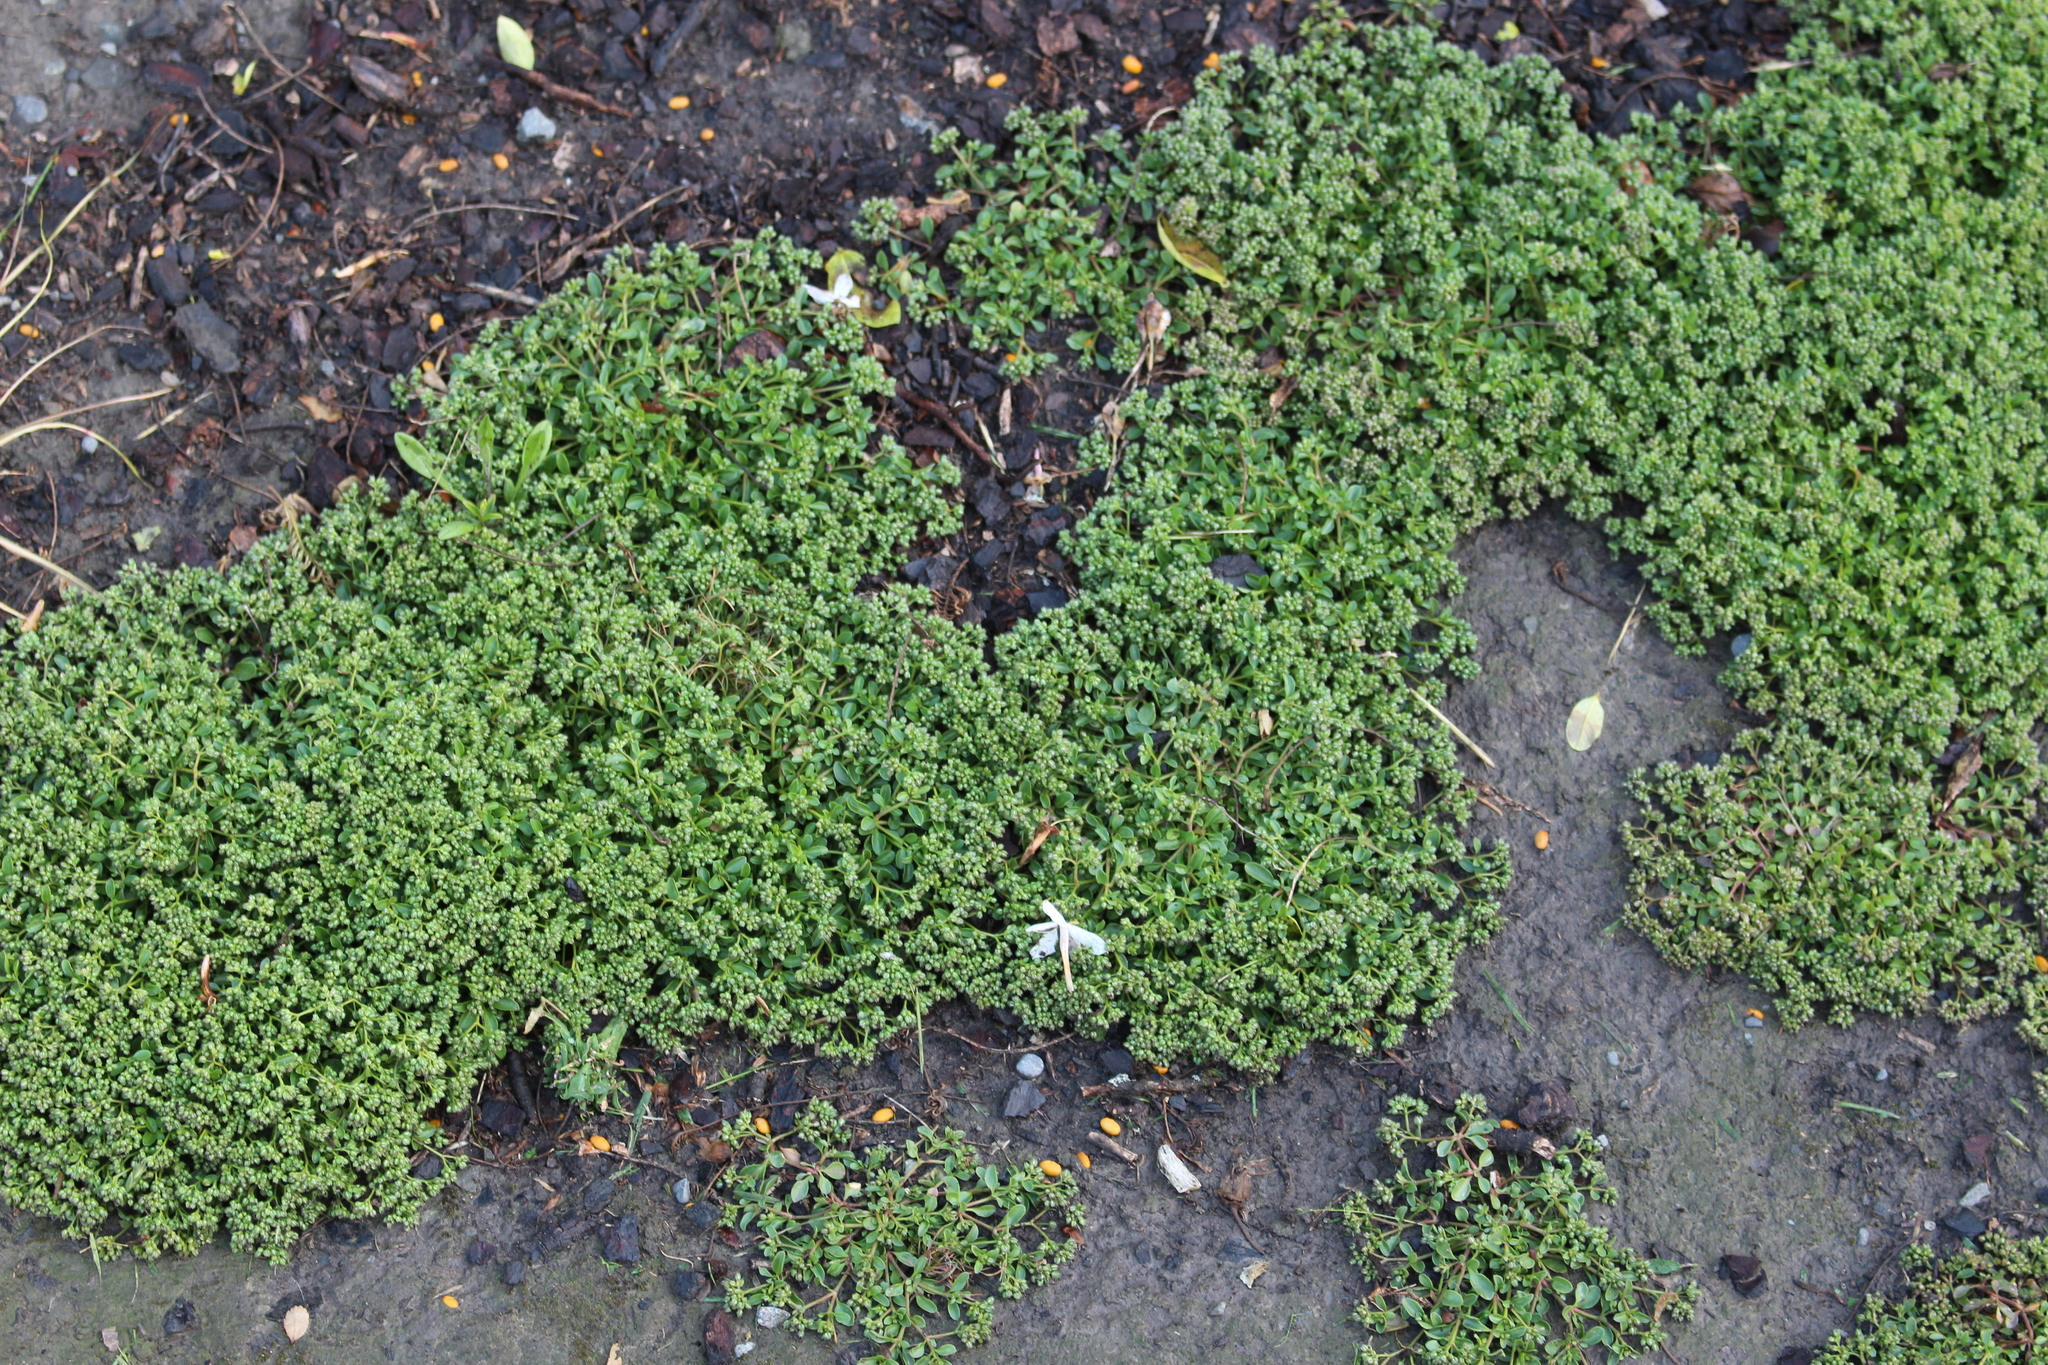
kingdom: Plantae
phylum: Tracheophyta
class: Magnoliopsida
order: Caryophyllales
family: Caryophyllaceae
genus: Polycarpon
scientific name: Polycarpon tetraphyllum
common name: Four-leaved all-seed
